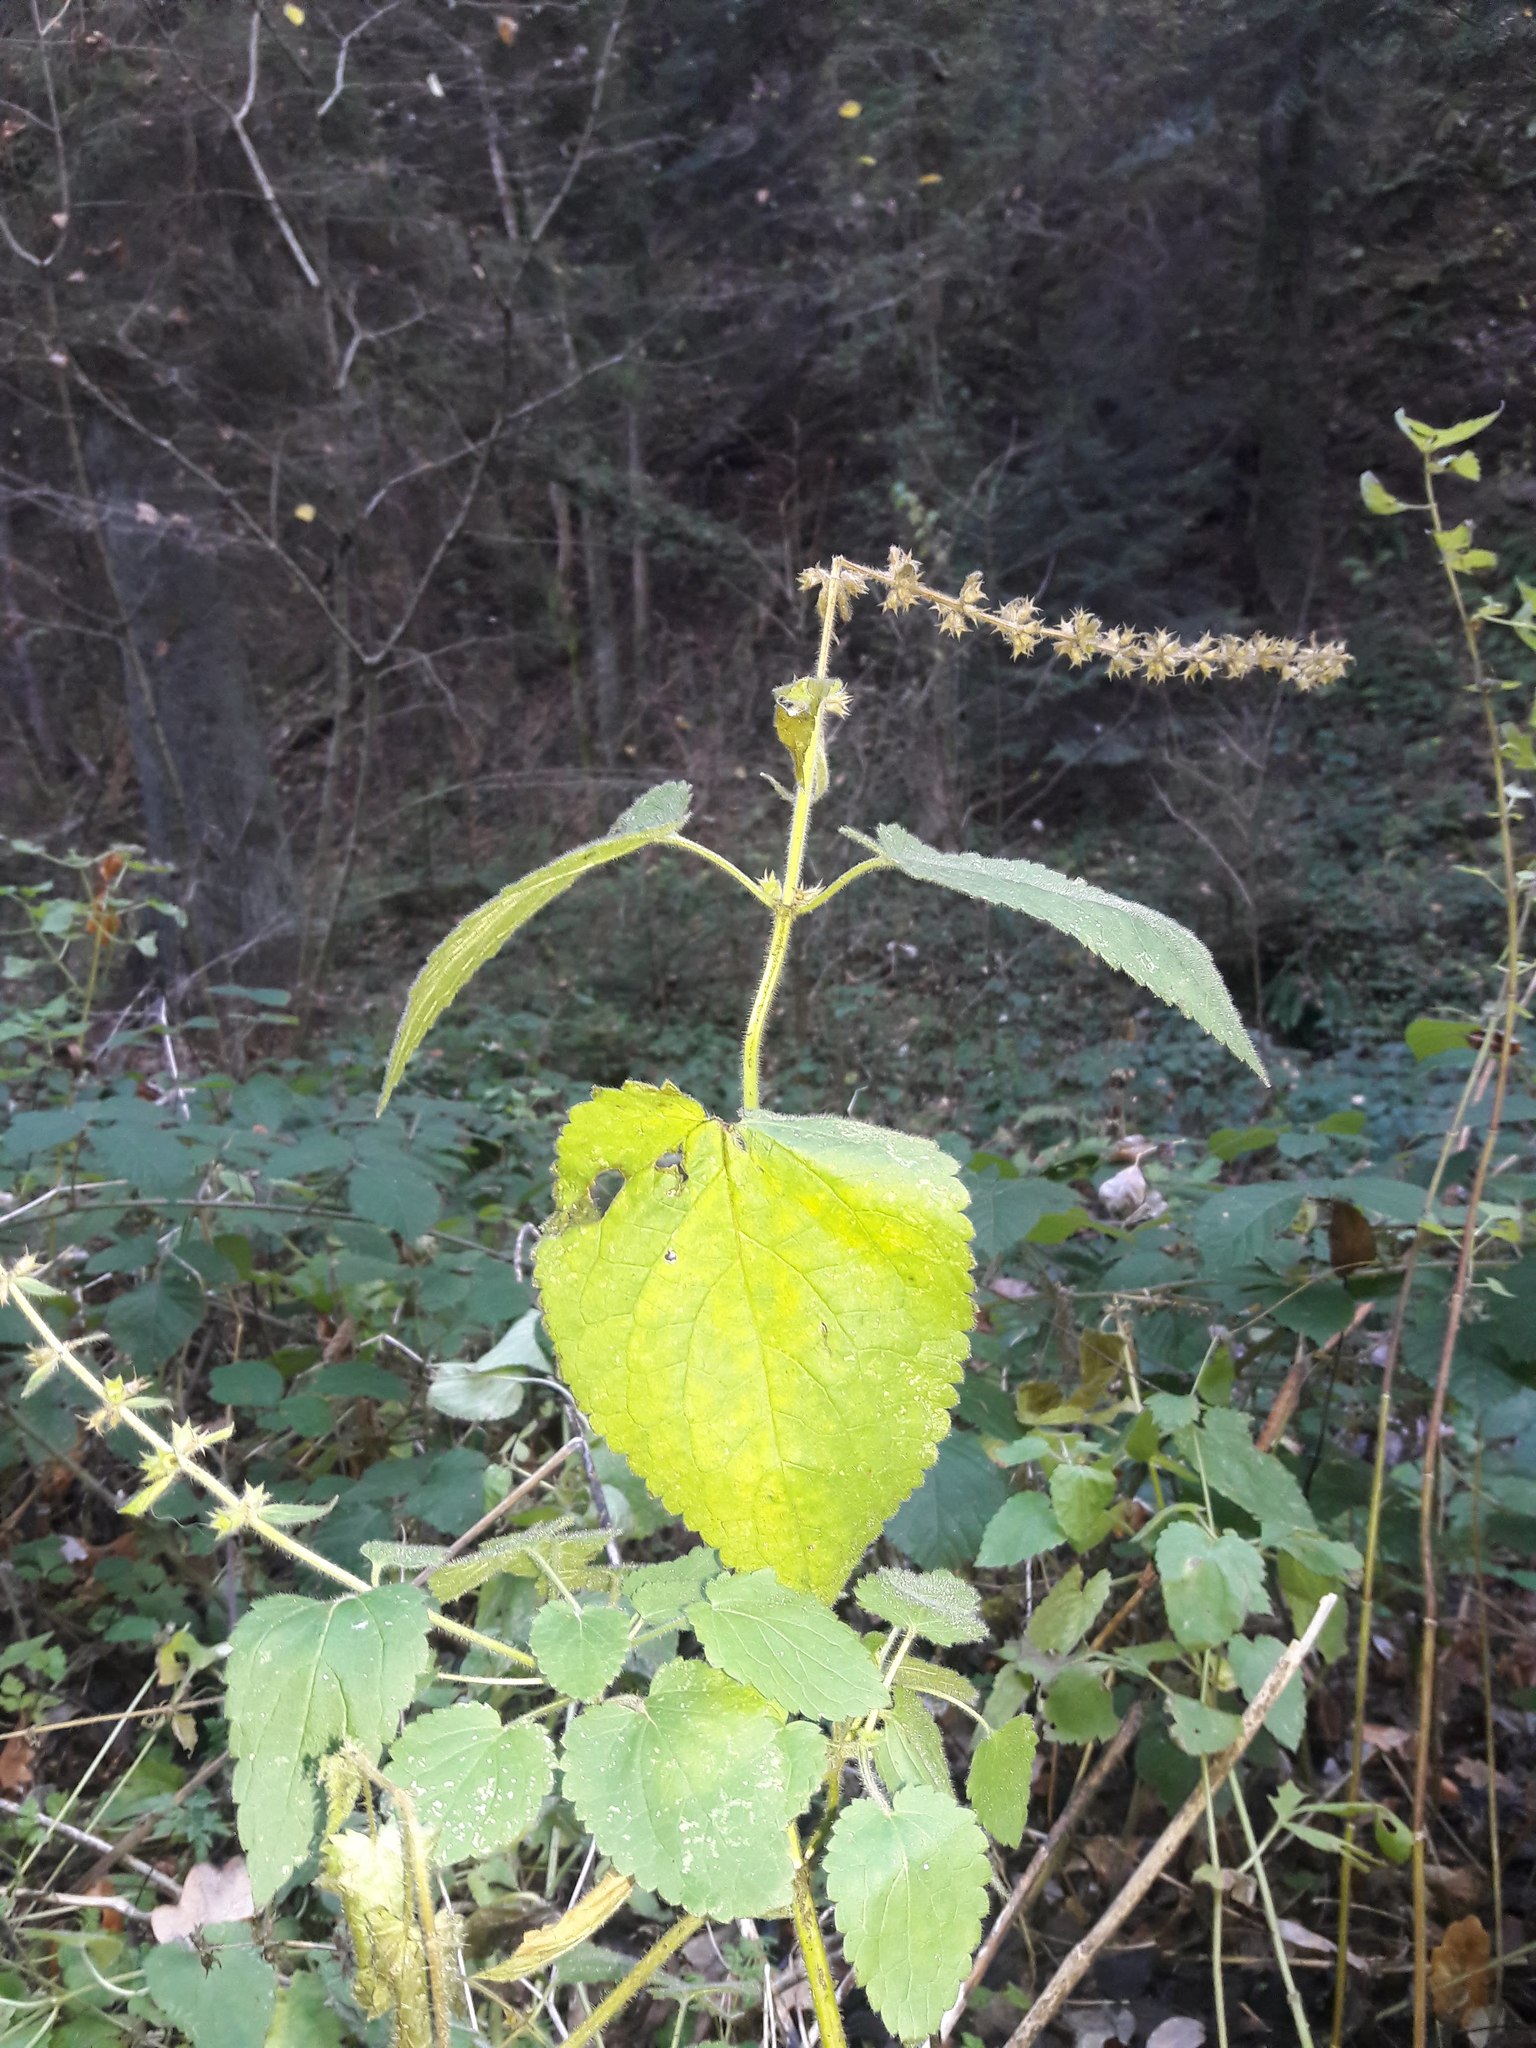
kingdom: Plantae
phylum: Tracheophyta
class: Magnoliopsida
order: Lamiales
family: Lamiaceae
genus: Stachys
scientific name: Stachys sylvatica
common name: Hedge woundwort
